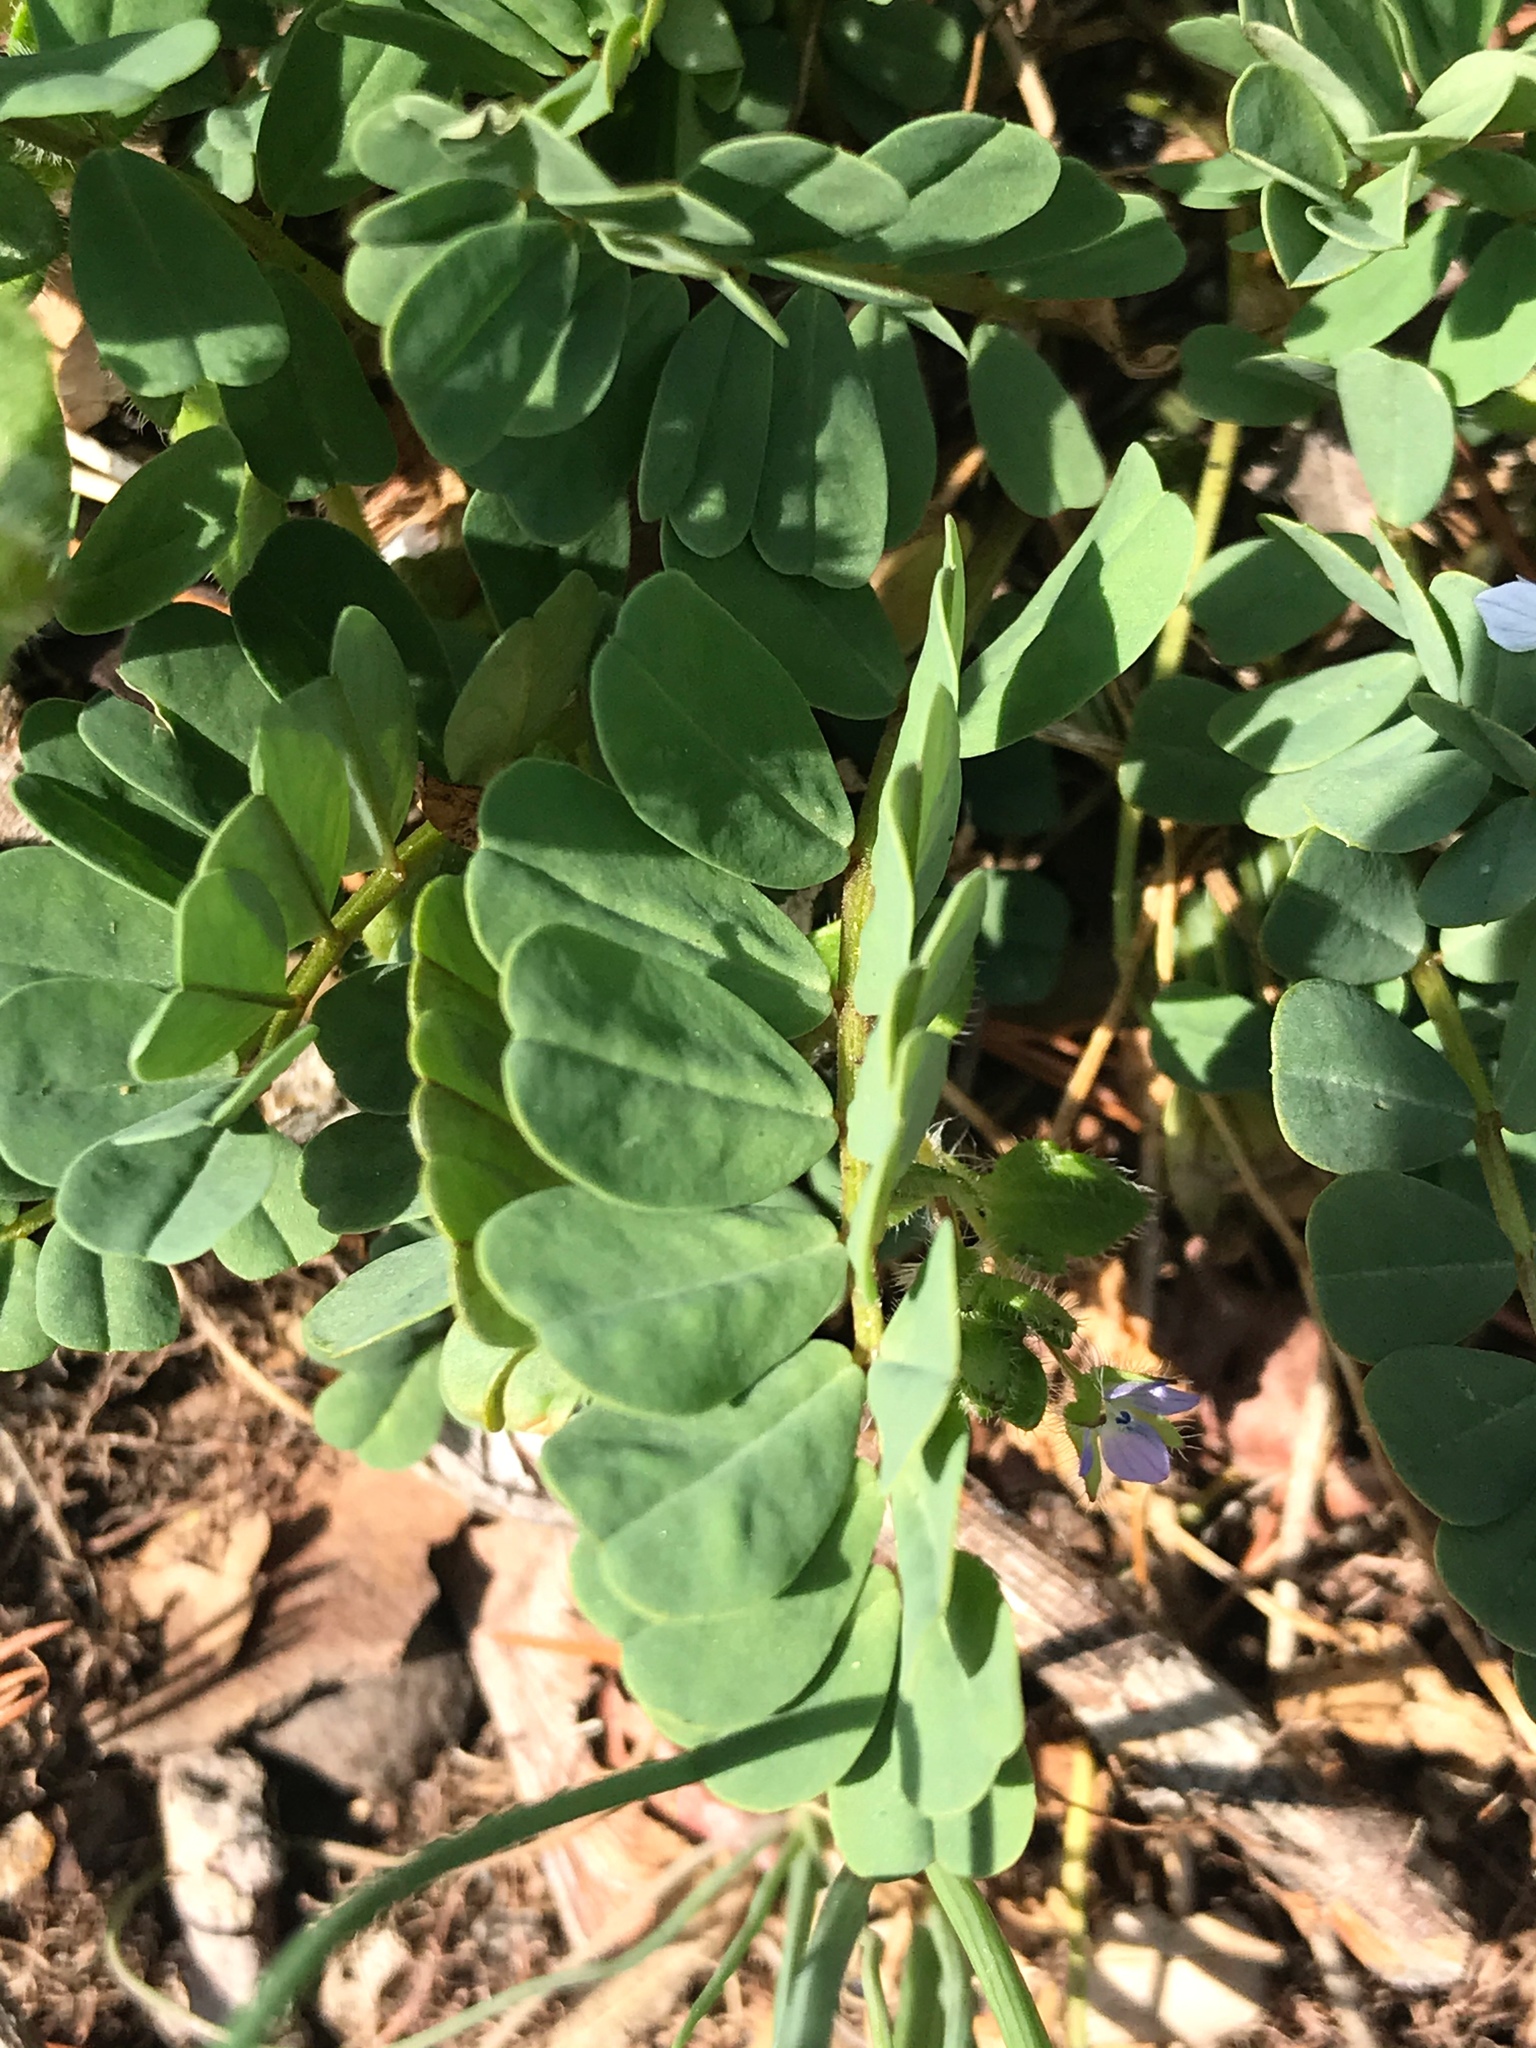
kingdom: Plantae
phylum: Tracheophyta
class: Magnoliopsida
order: Fabales
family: Fabaceae
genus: Coronilla
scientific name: Coronilla varia
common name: Crownvetch
